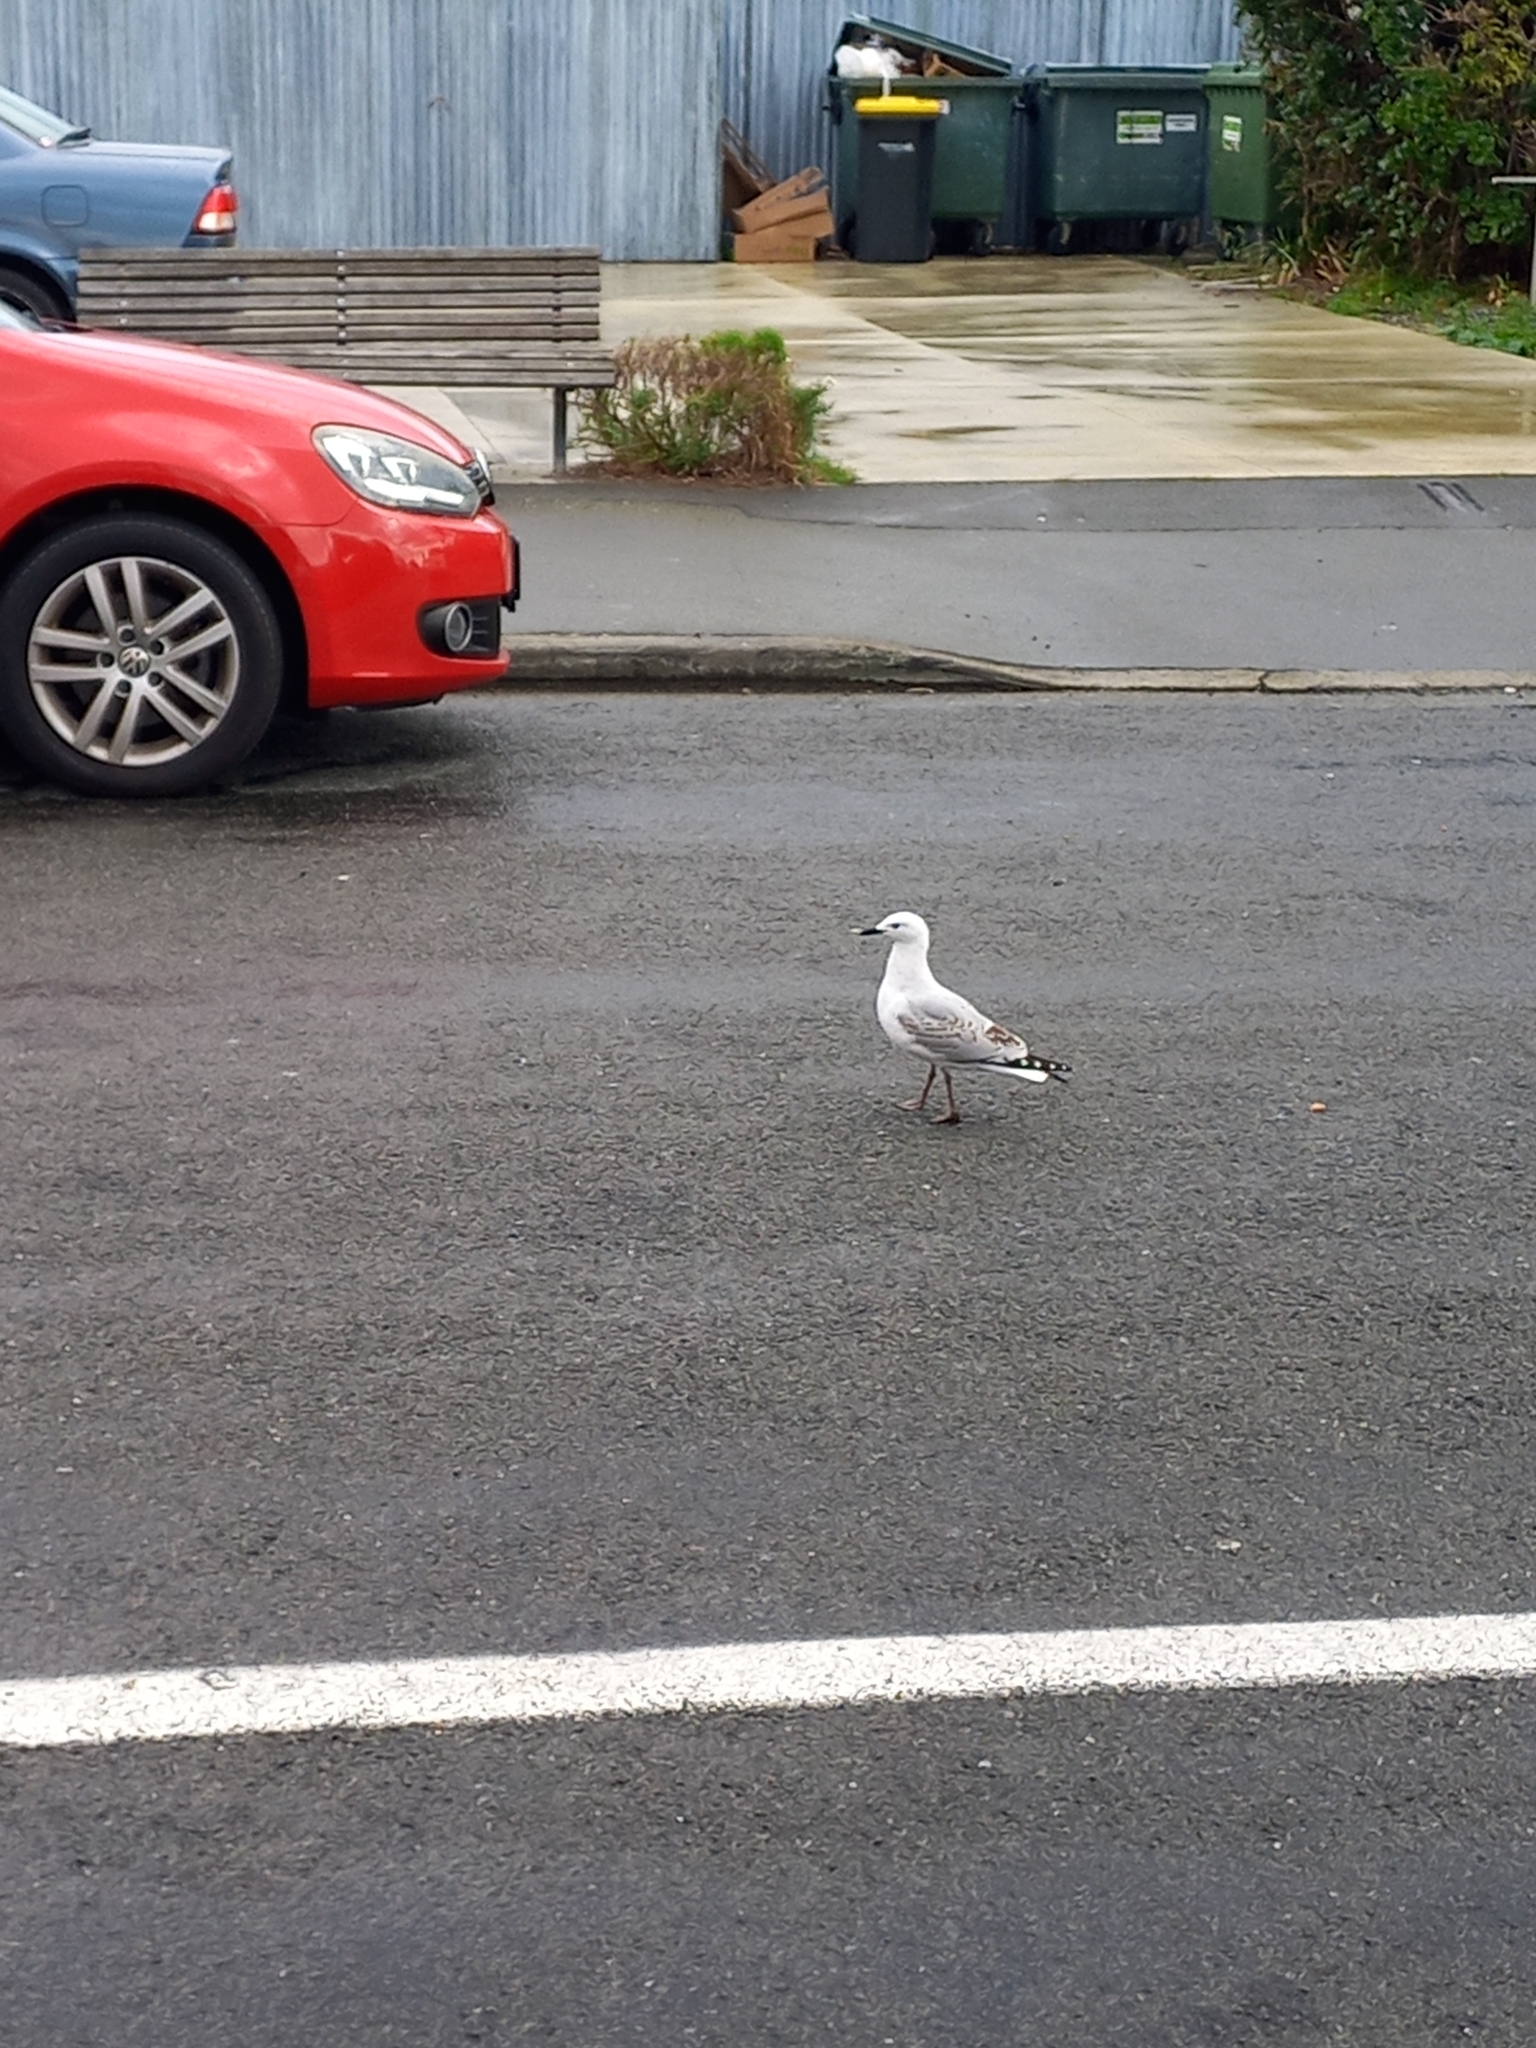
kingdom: Animalia
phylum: Chordata
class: Aves
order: Charadriiformes
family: Laridae
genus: Chroicocephalus
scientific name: Chroicocephalus bulleri
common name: Black-billed gull
